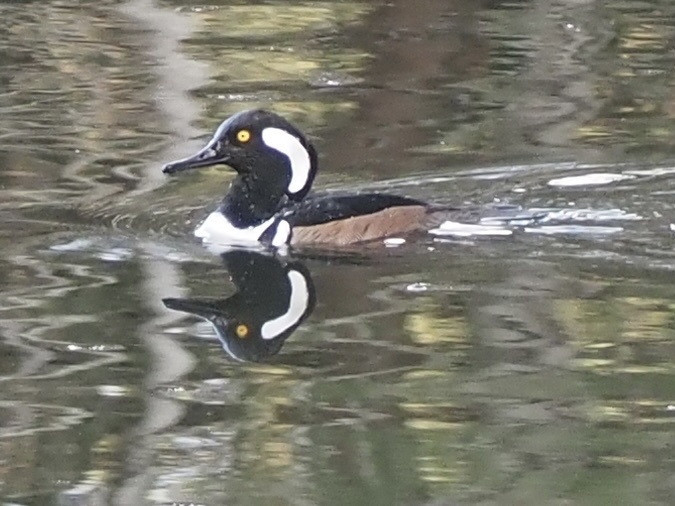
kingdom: Animalia
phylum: Chordata
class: Aves
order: Anseriformes
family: Anatidae
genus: Lophodytes
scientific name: Lophodytes cucullatus
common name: Hooded merganser
